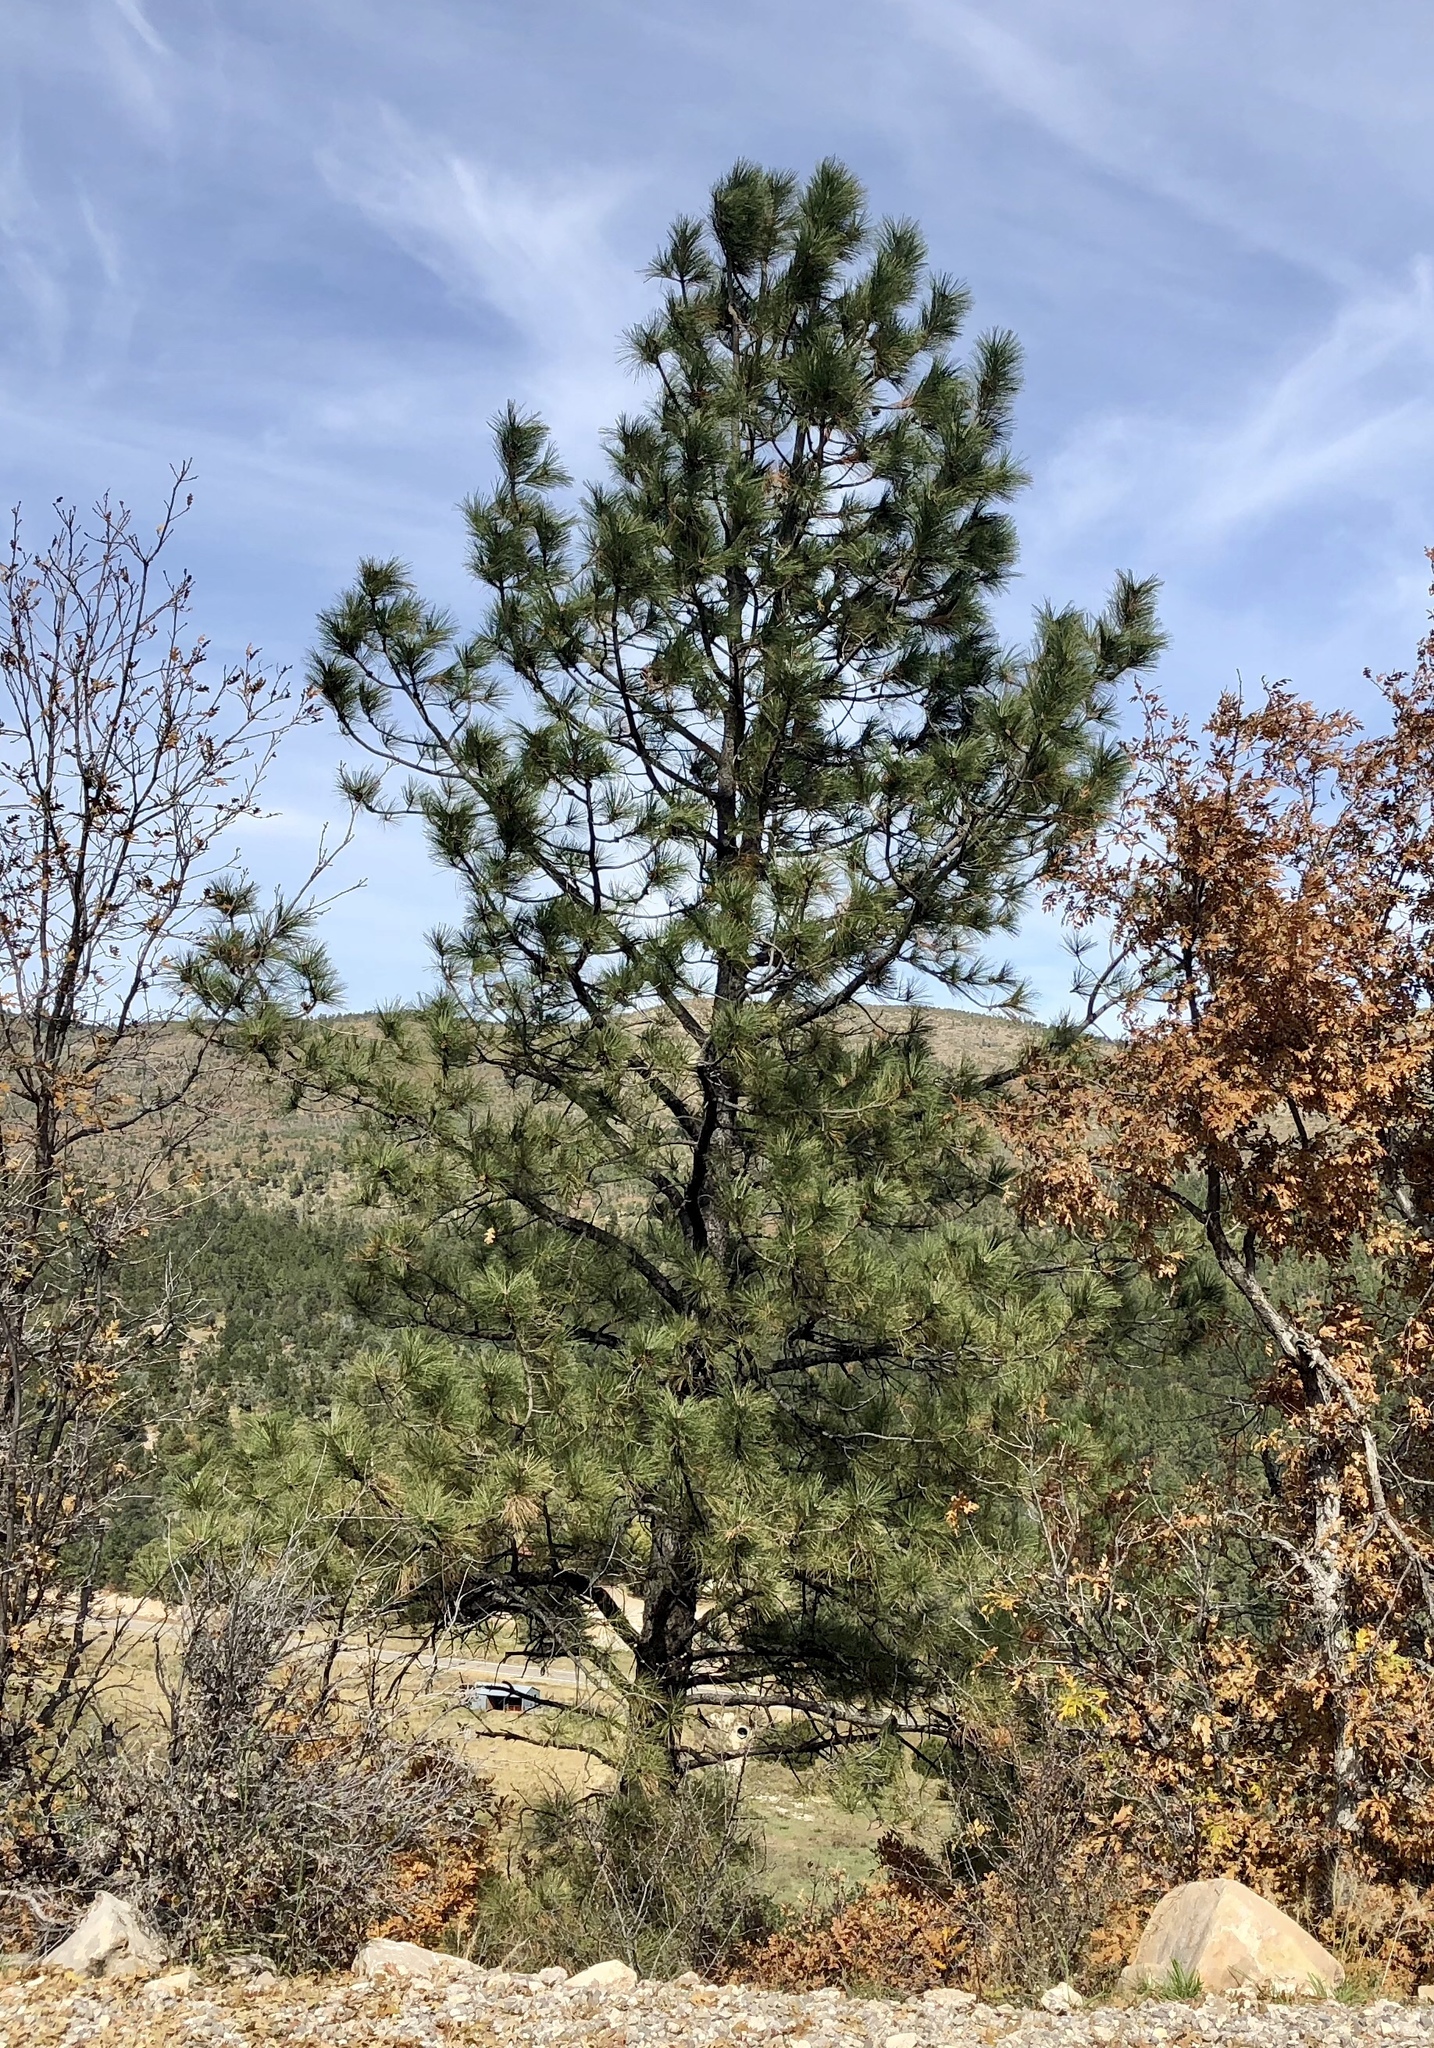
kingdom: Plantae
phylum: Tracheophyta
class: Pinopsida
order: Pinales
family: Pinaceae
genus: Pinus
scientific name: Pinus ponderosa
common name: Western yellow-pine
